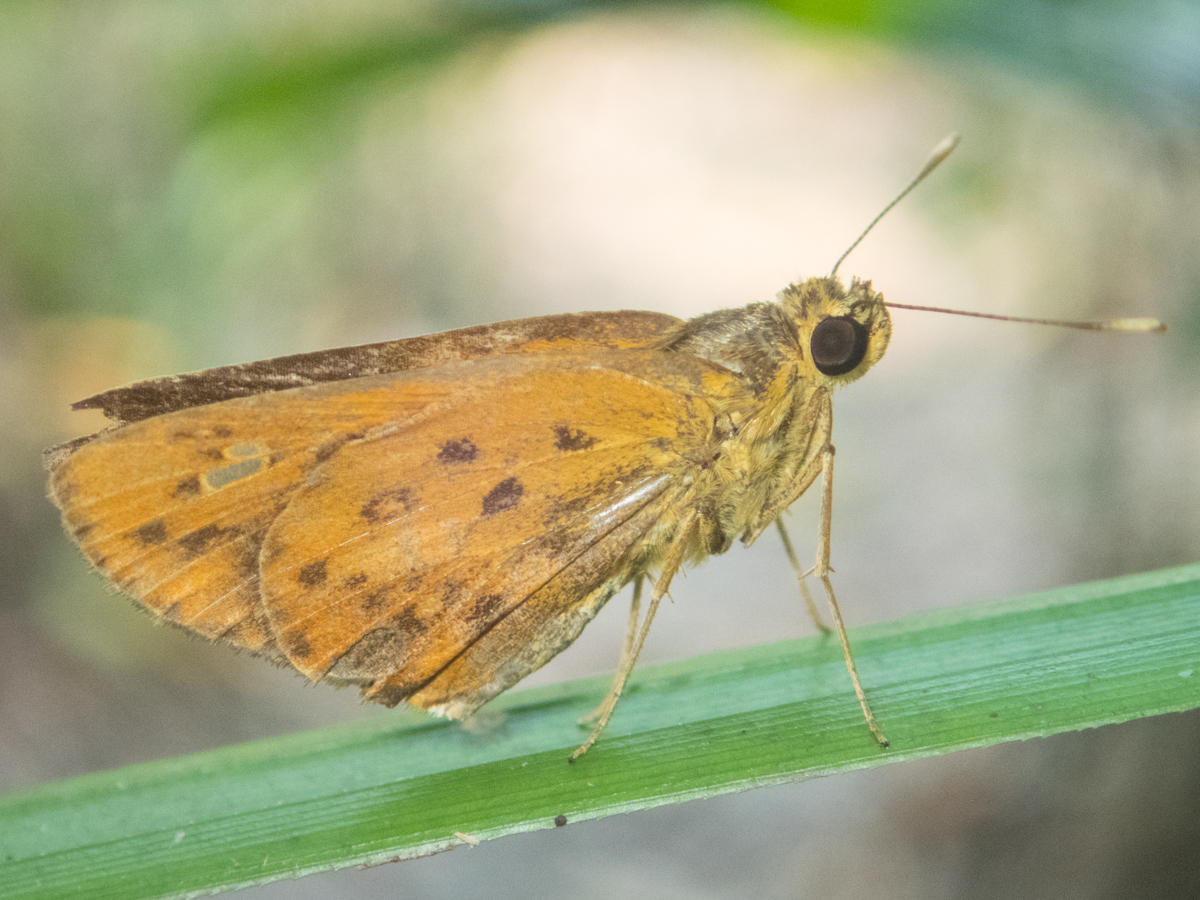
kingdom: Animalia
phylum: Arthropoda
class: Insecta
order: Lepidoptera
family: Hesperiidae
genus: Salanoemia
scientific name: Salanoemia tavoyana
